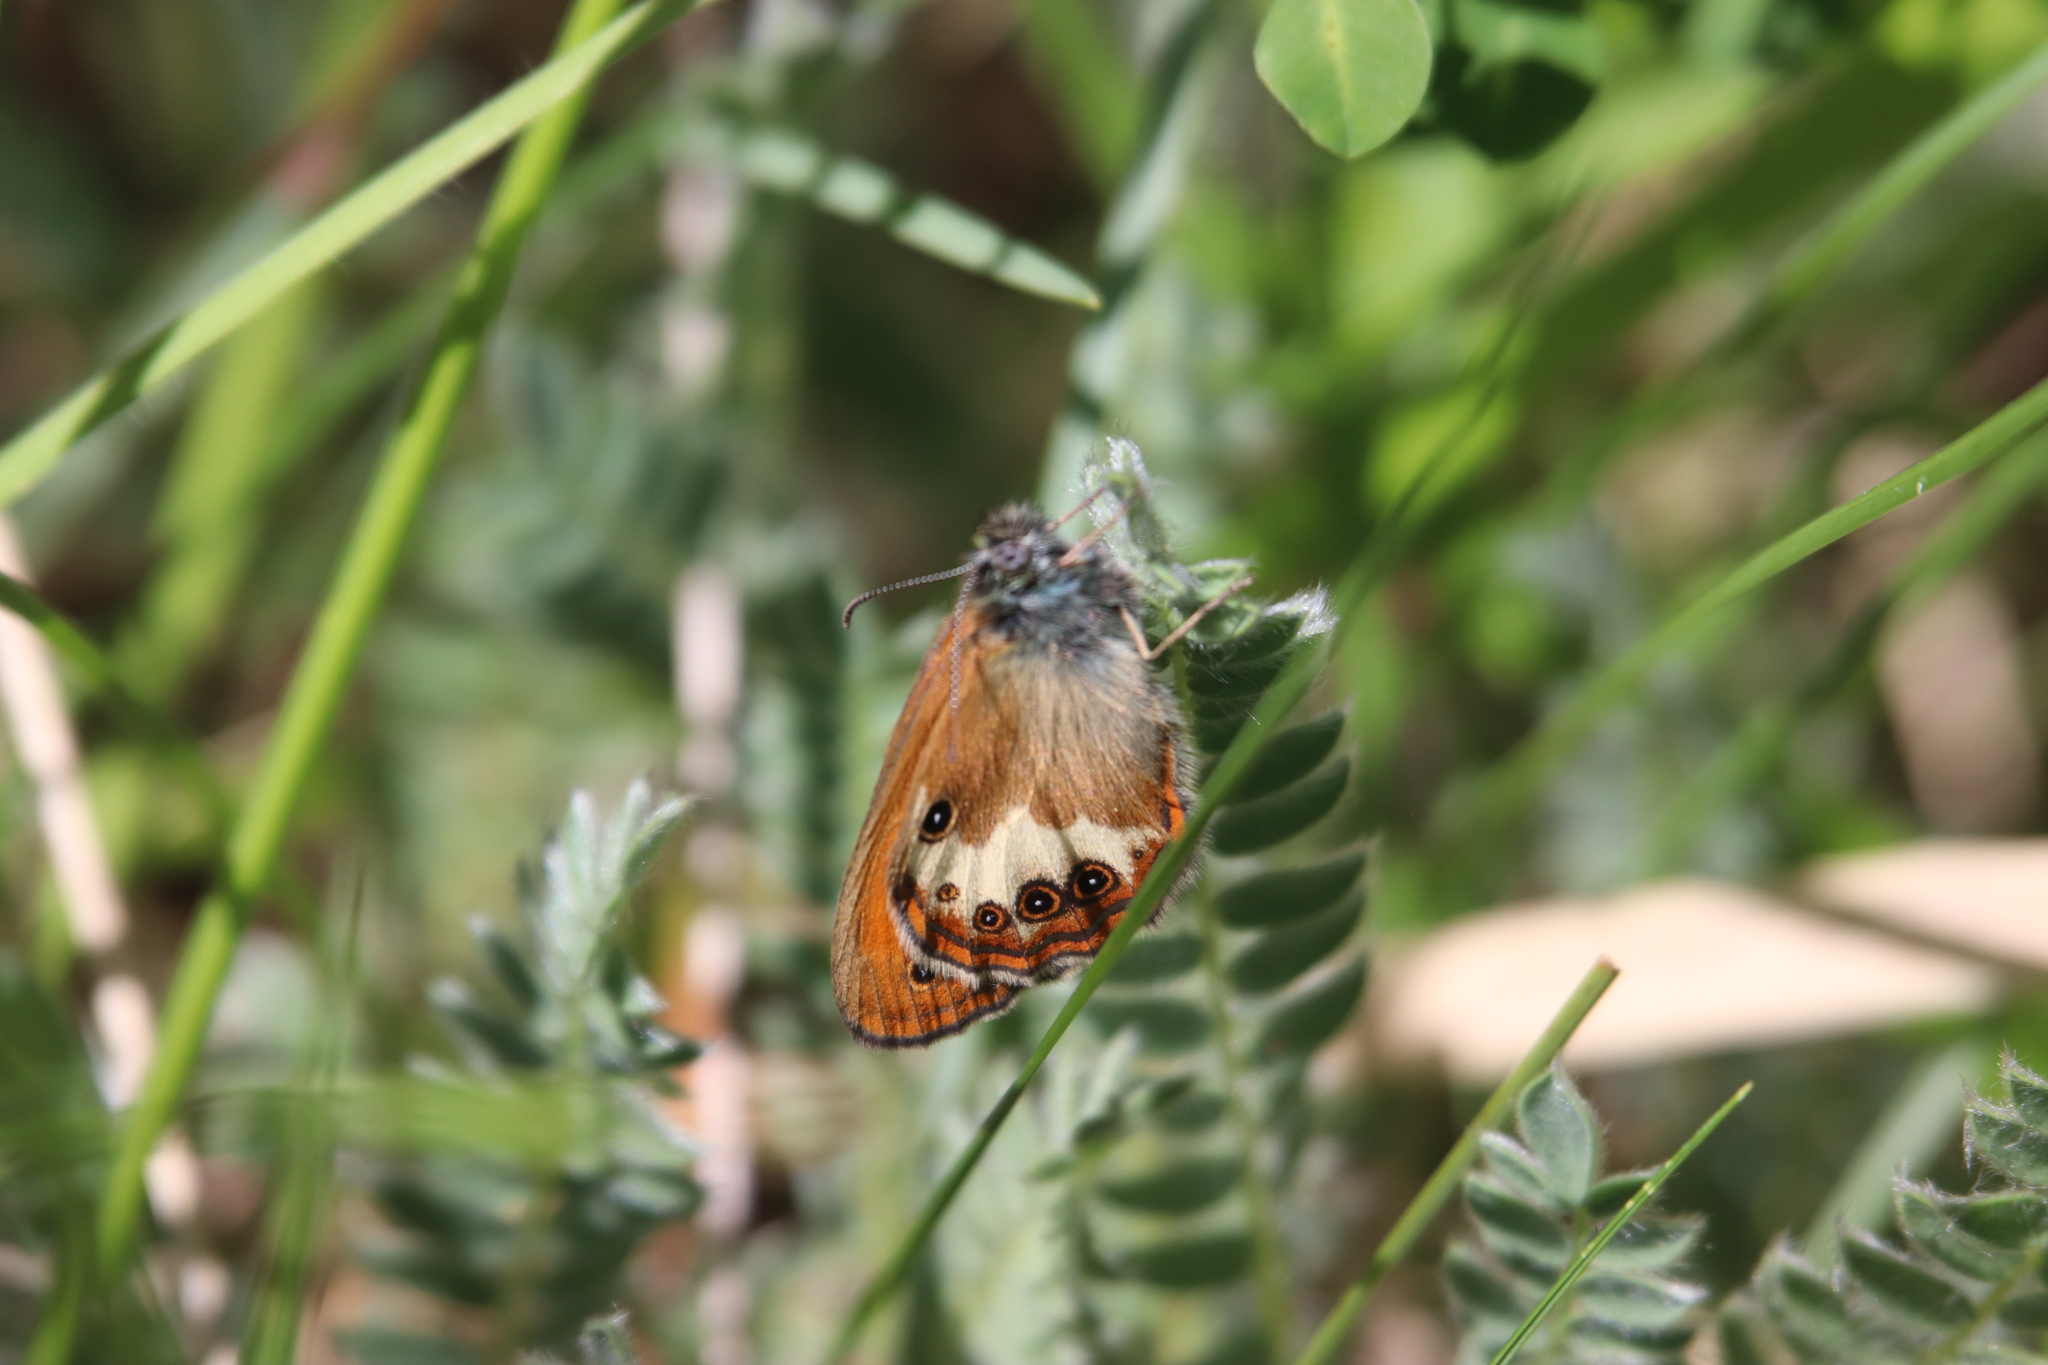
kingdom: Animalia
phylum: Arthropoda
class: Insecta
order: Lepidoptera
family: Nymphalidae
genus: Coenonympha
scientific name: Coenonympha arcania
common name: Pearly heath
